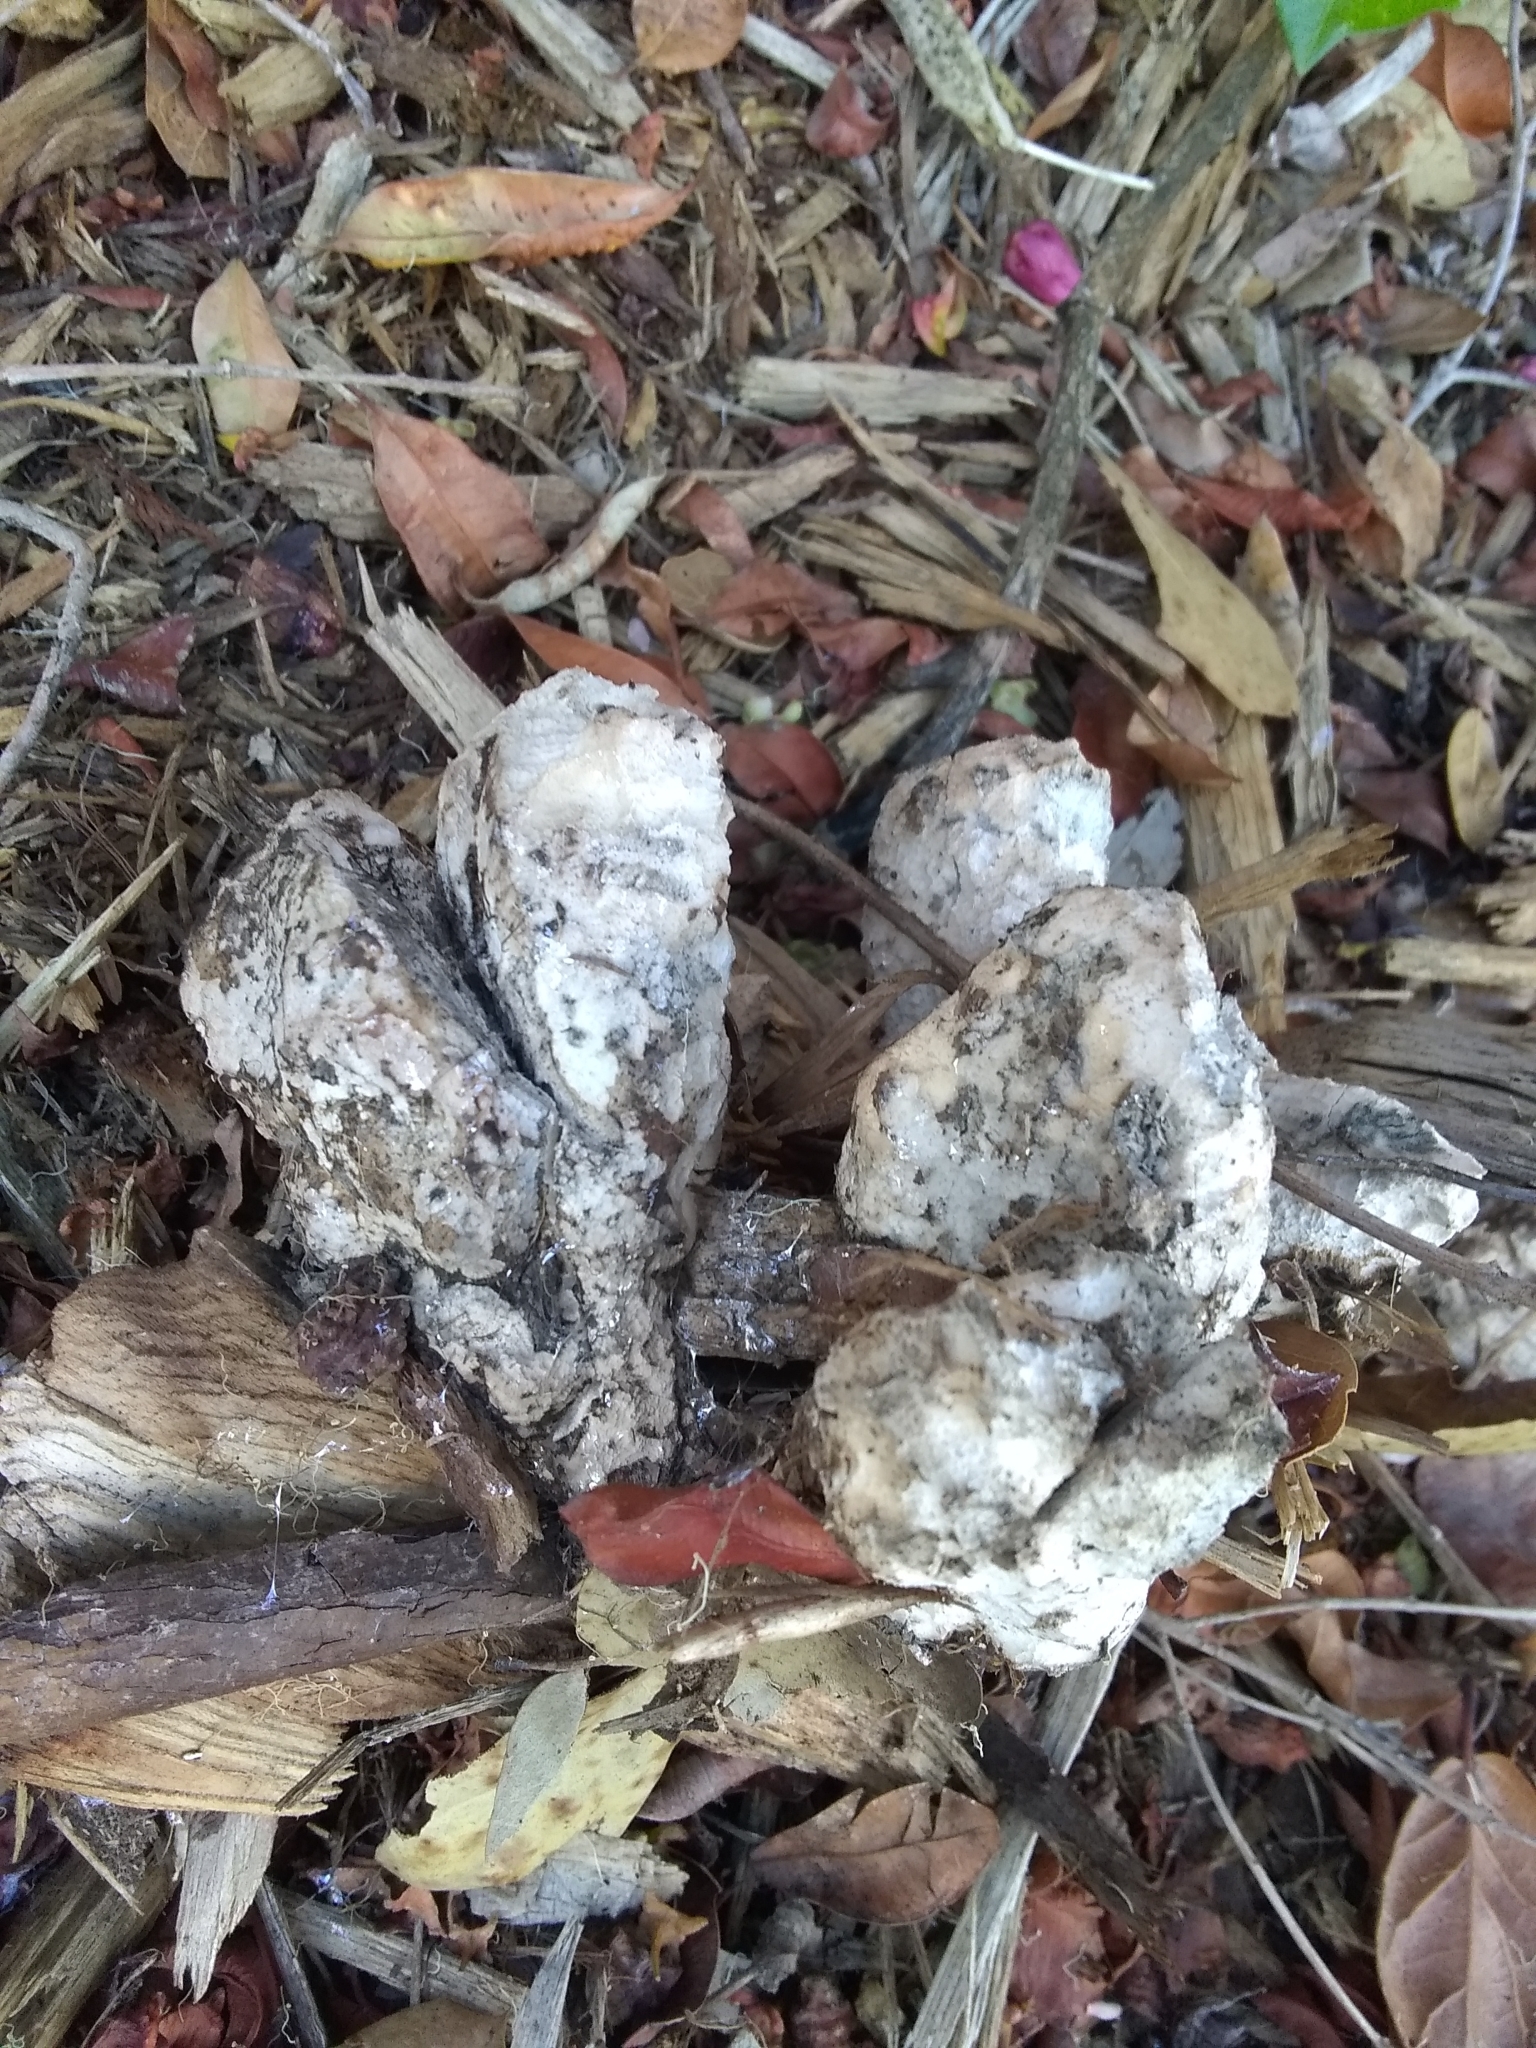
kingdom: Fungi
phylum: Basidiomycota
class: Agaricomycetes
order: Polyporales
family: Laetiporaceae
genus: Laetiporus
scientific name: Laetiporus gilbertsonii
